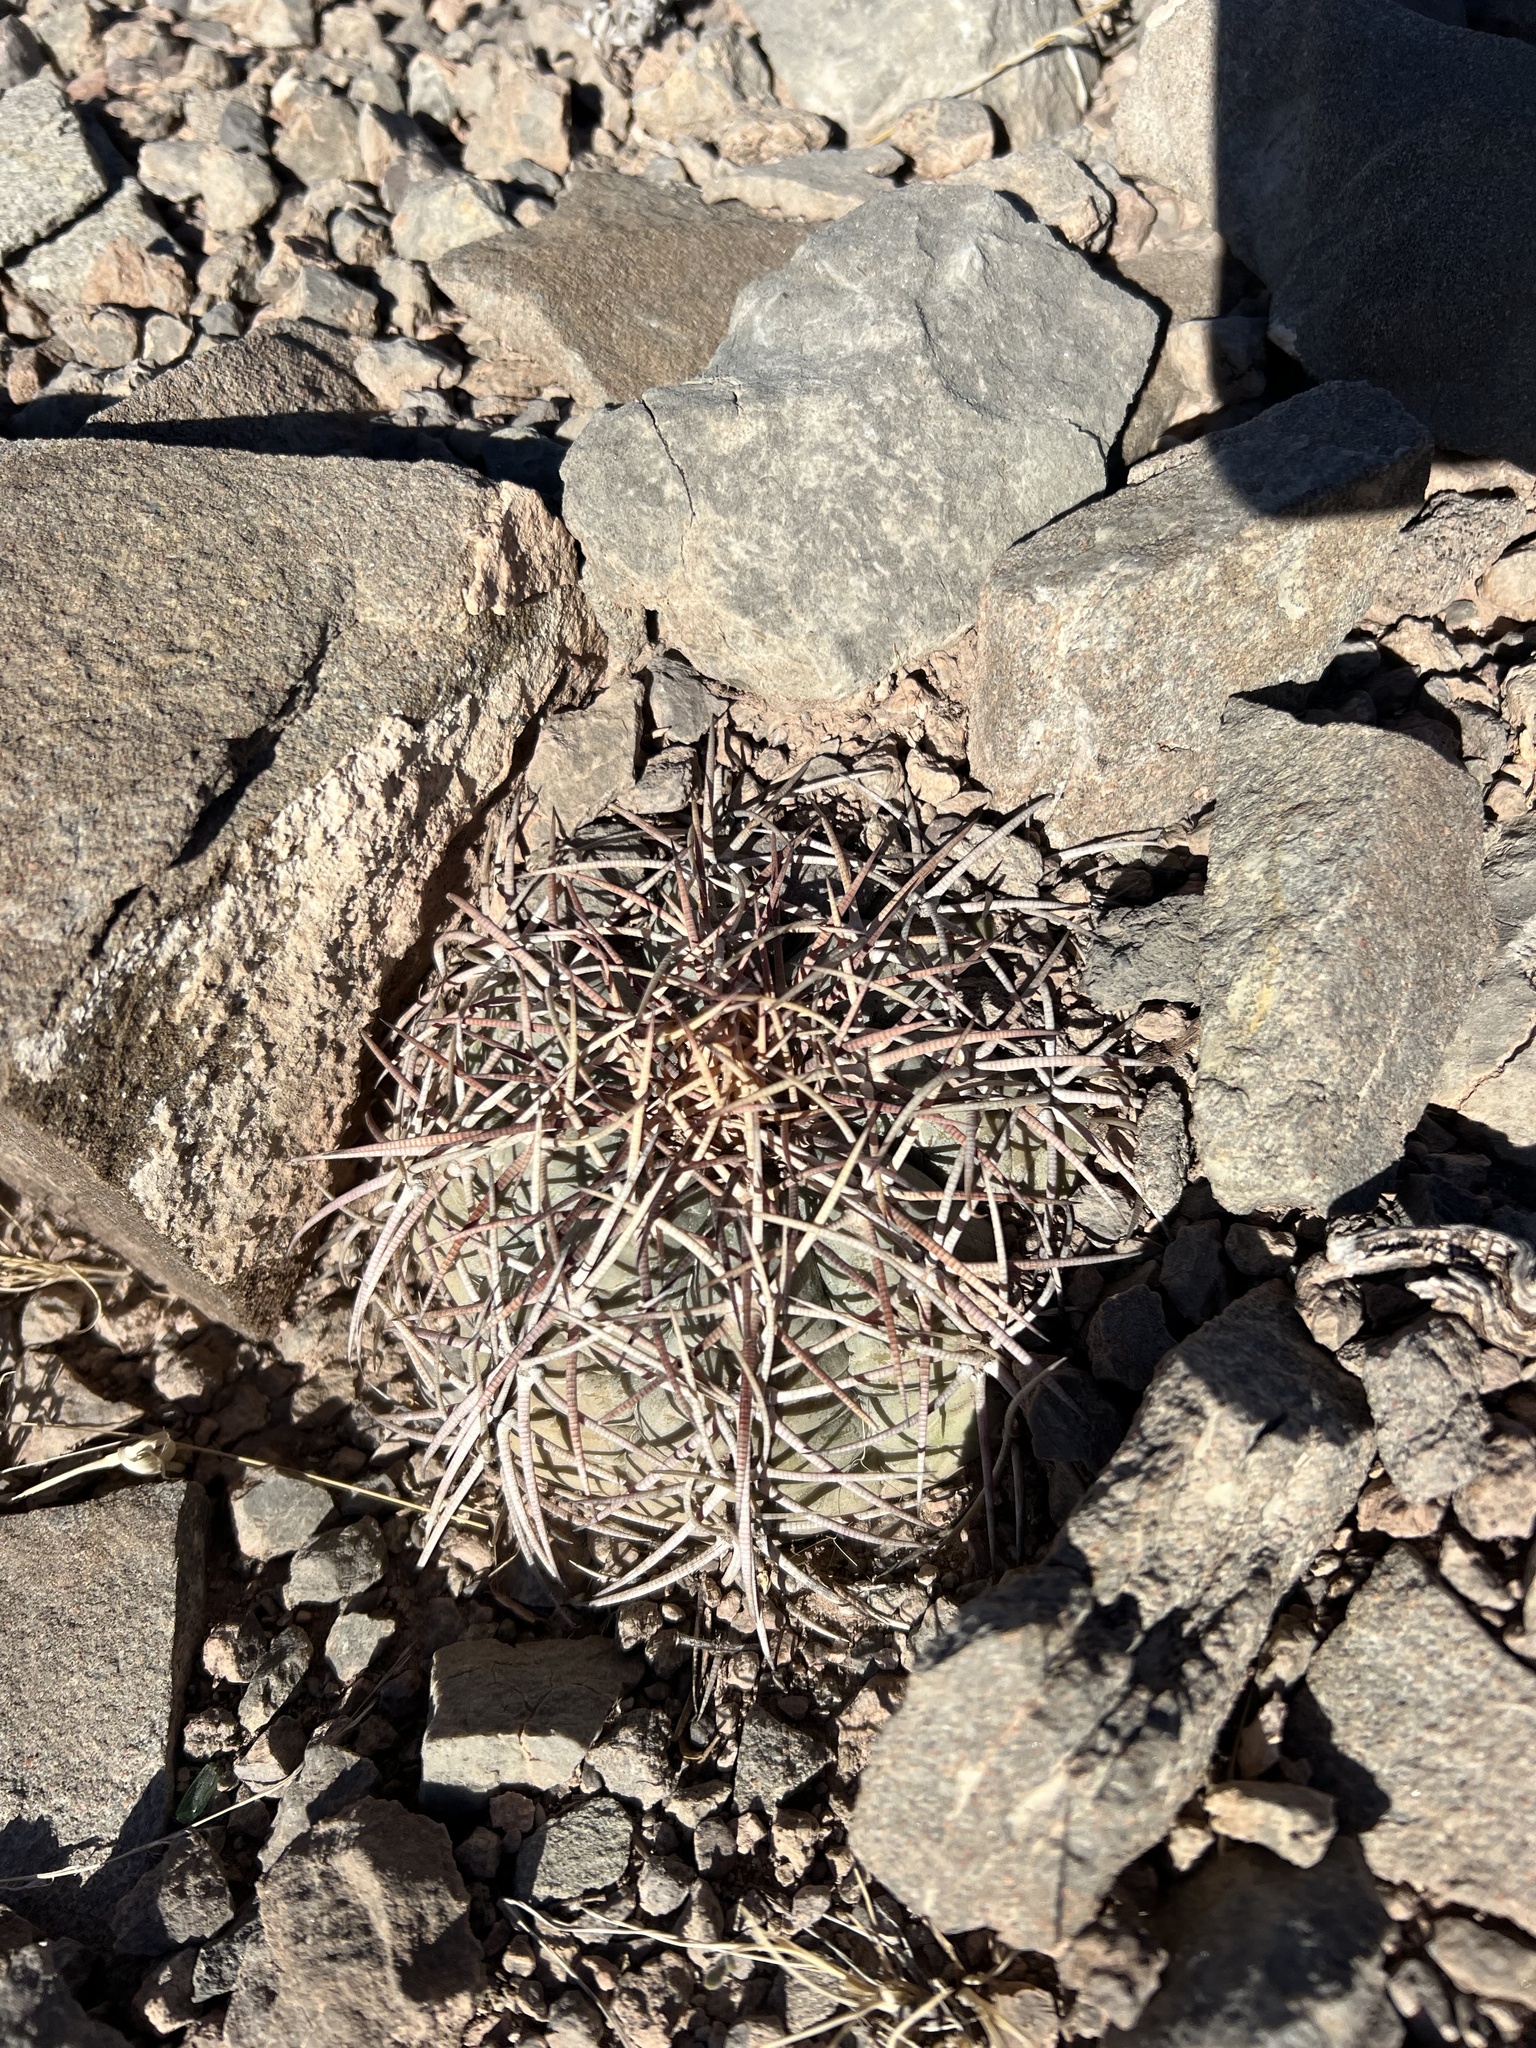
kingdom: Plantae
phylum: Tracheophyta
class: Magnoliopsida
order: Caryophyllales
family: Cactaceae
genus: Echinocactus
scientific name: Echinocactus horizonthalonius
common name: Devilshead
